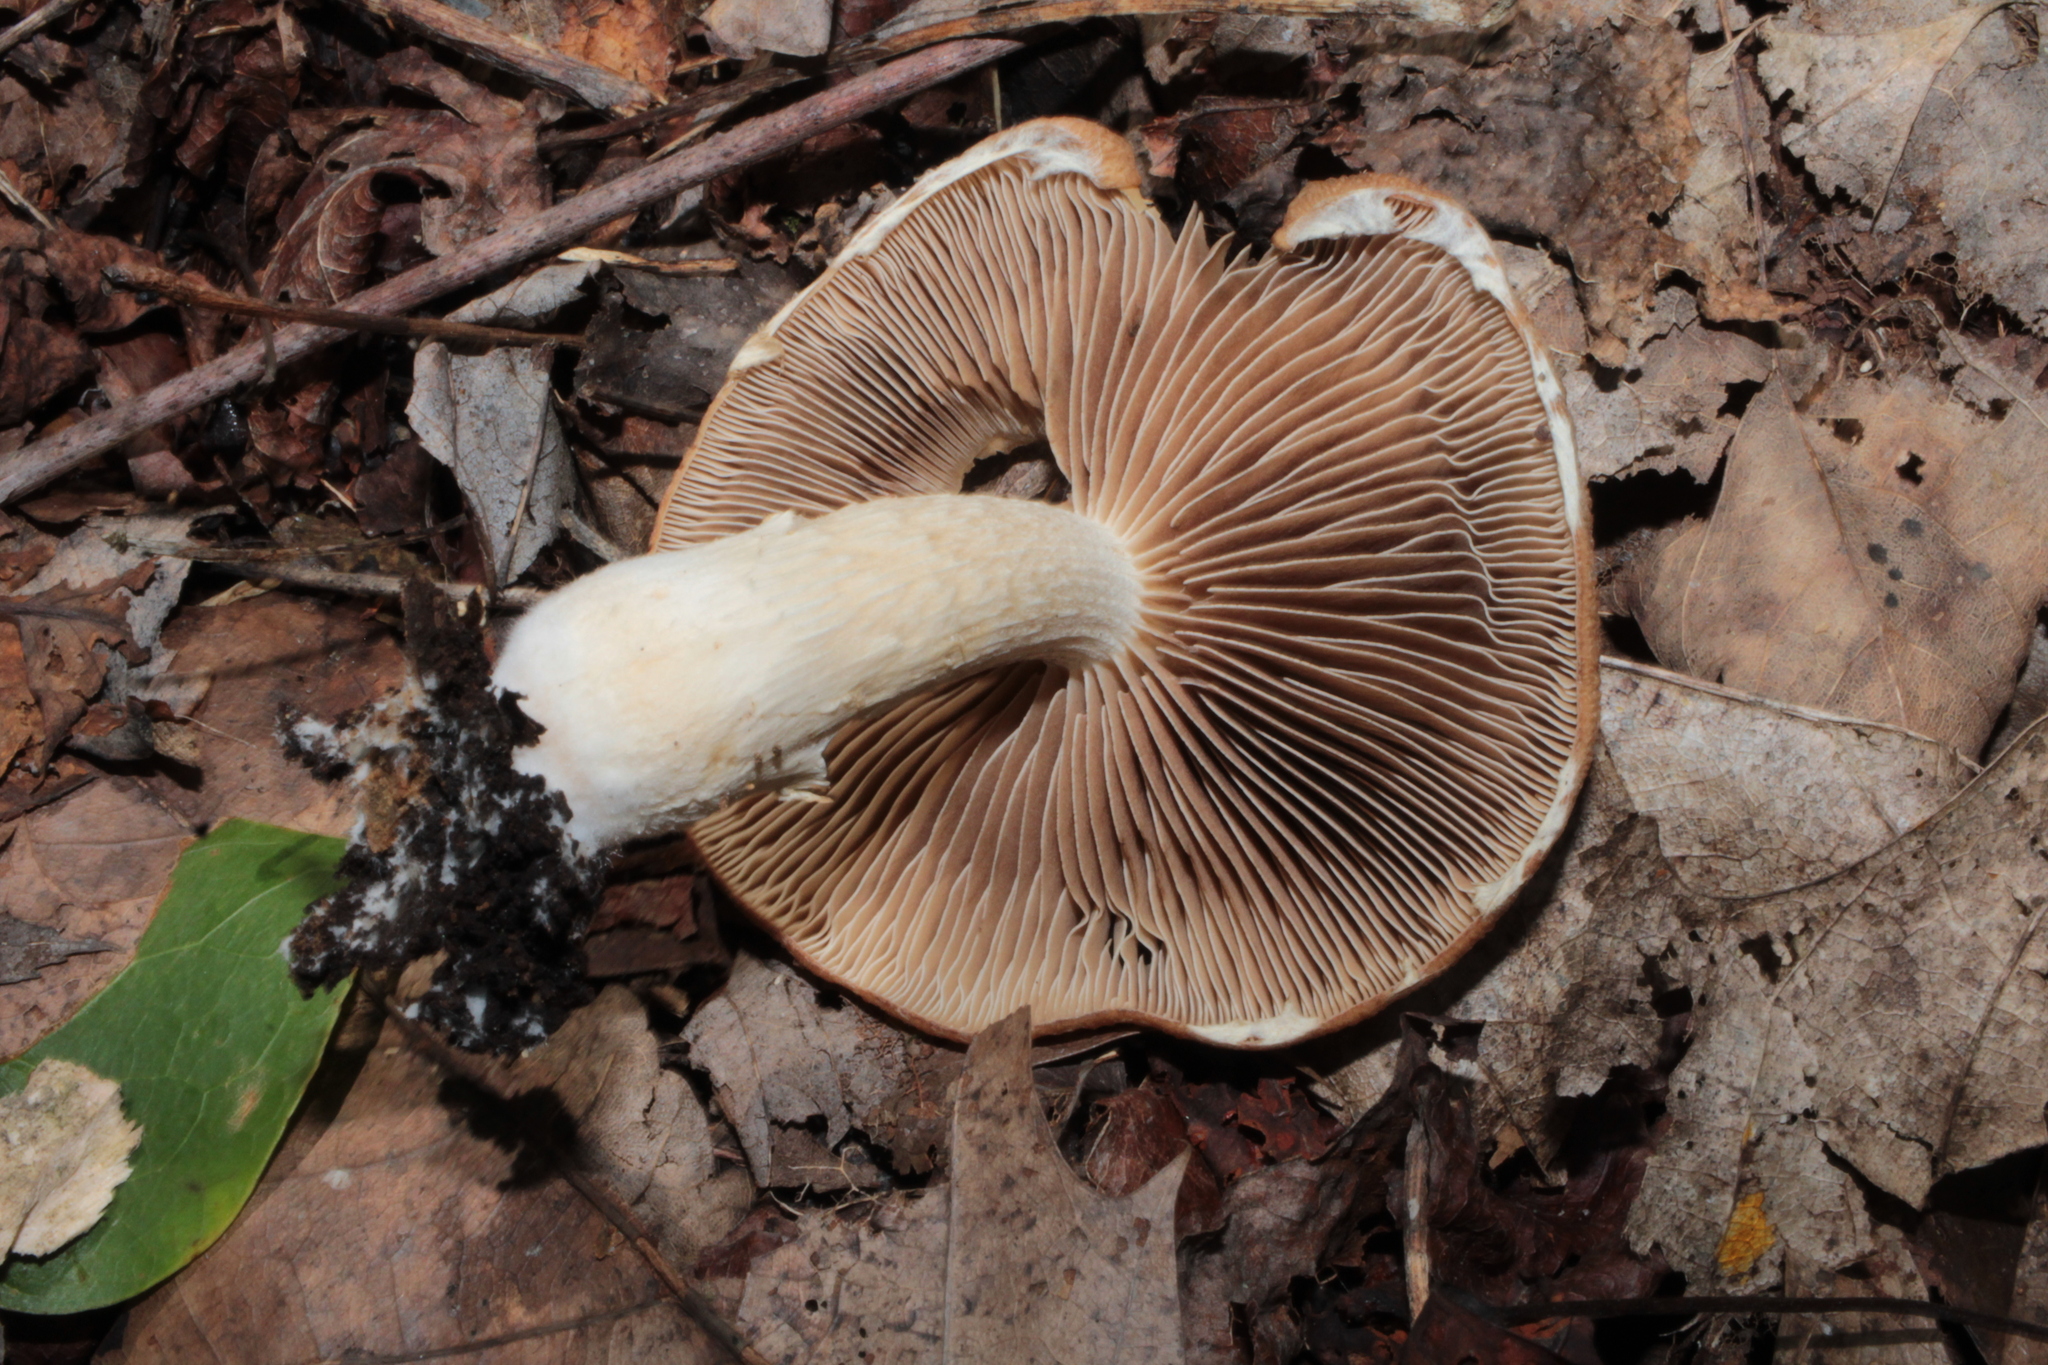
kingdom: Fungi
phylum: Basidiomycota
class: Agaricomycetes
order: Agaricales
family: Psathyrellaceae
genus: Typhrasa
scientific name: Typhrasa gossypina
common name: Wrinkled psathyrella
